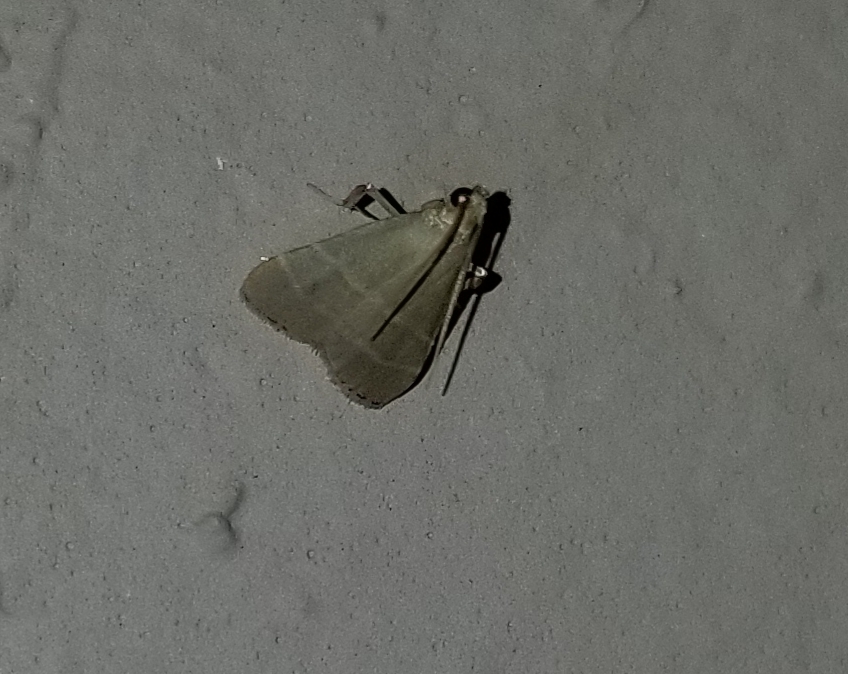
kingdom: Animalia
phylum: Arthropoda
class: Insecta
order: Lepidoptera
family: Pyralidae
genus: Arta
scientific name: Arta olivalis
